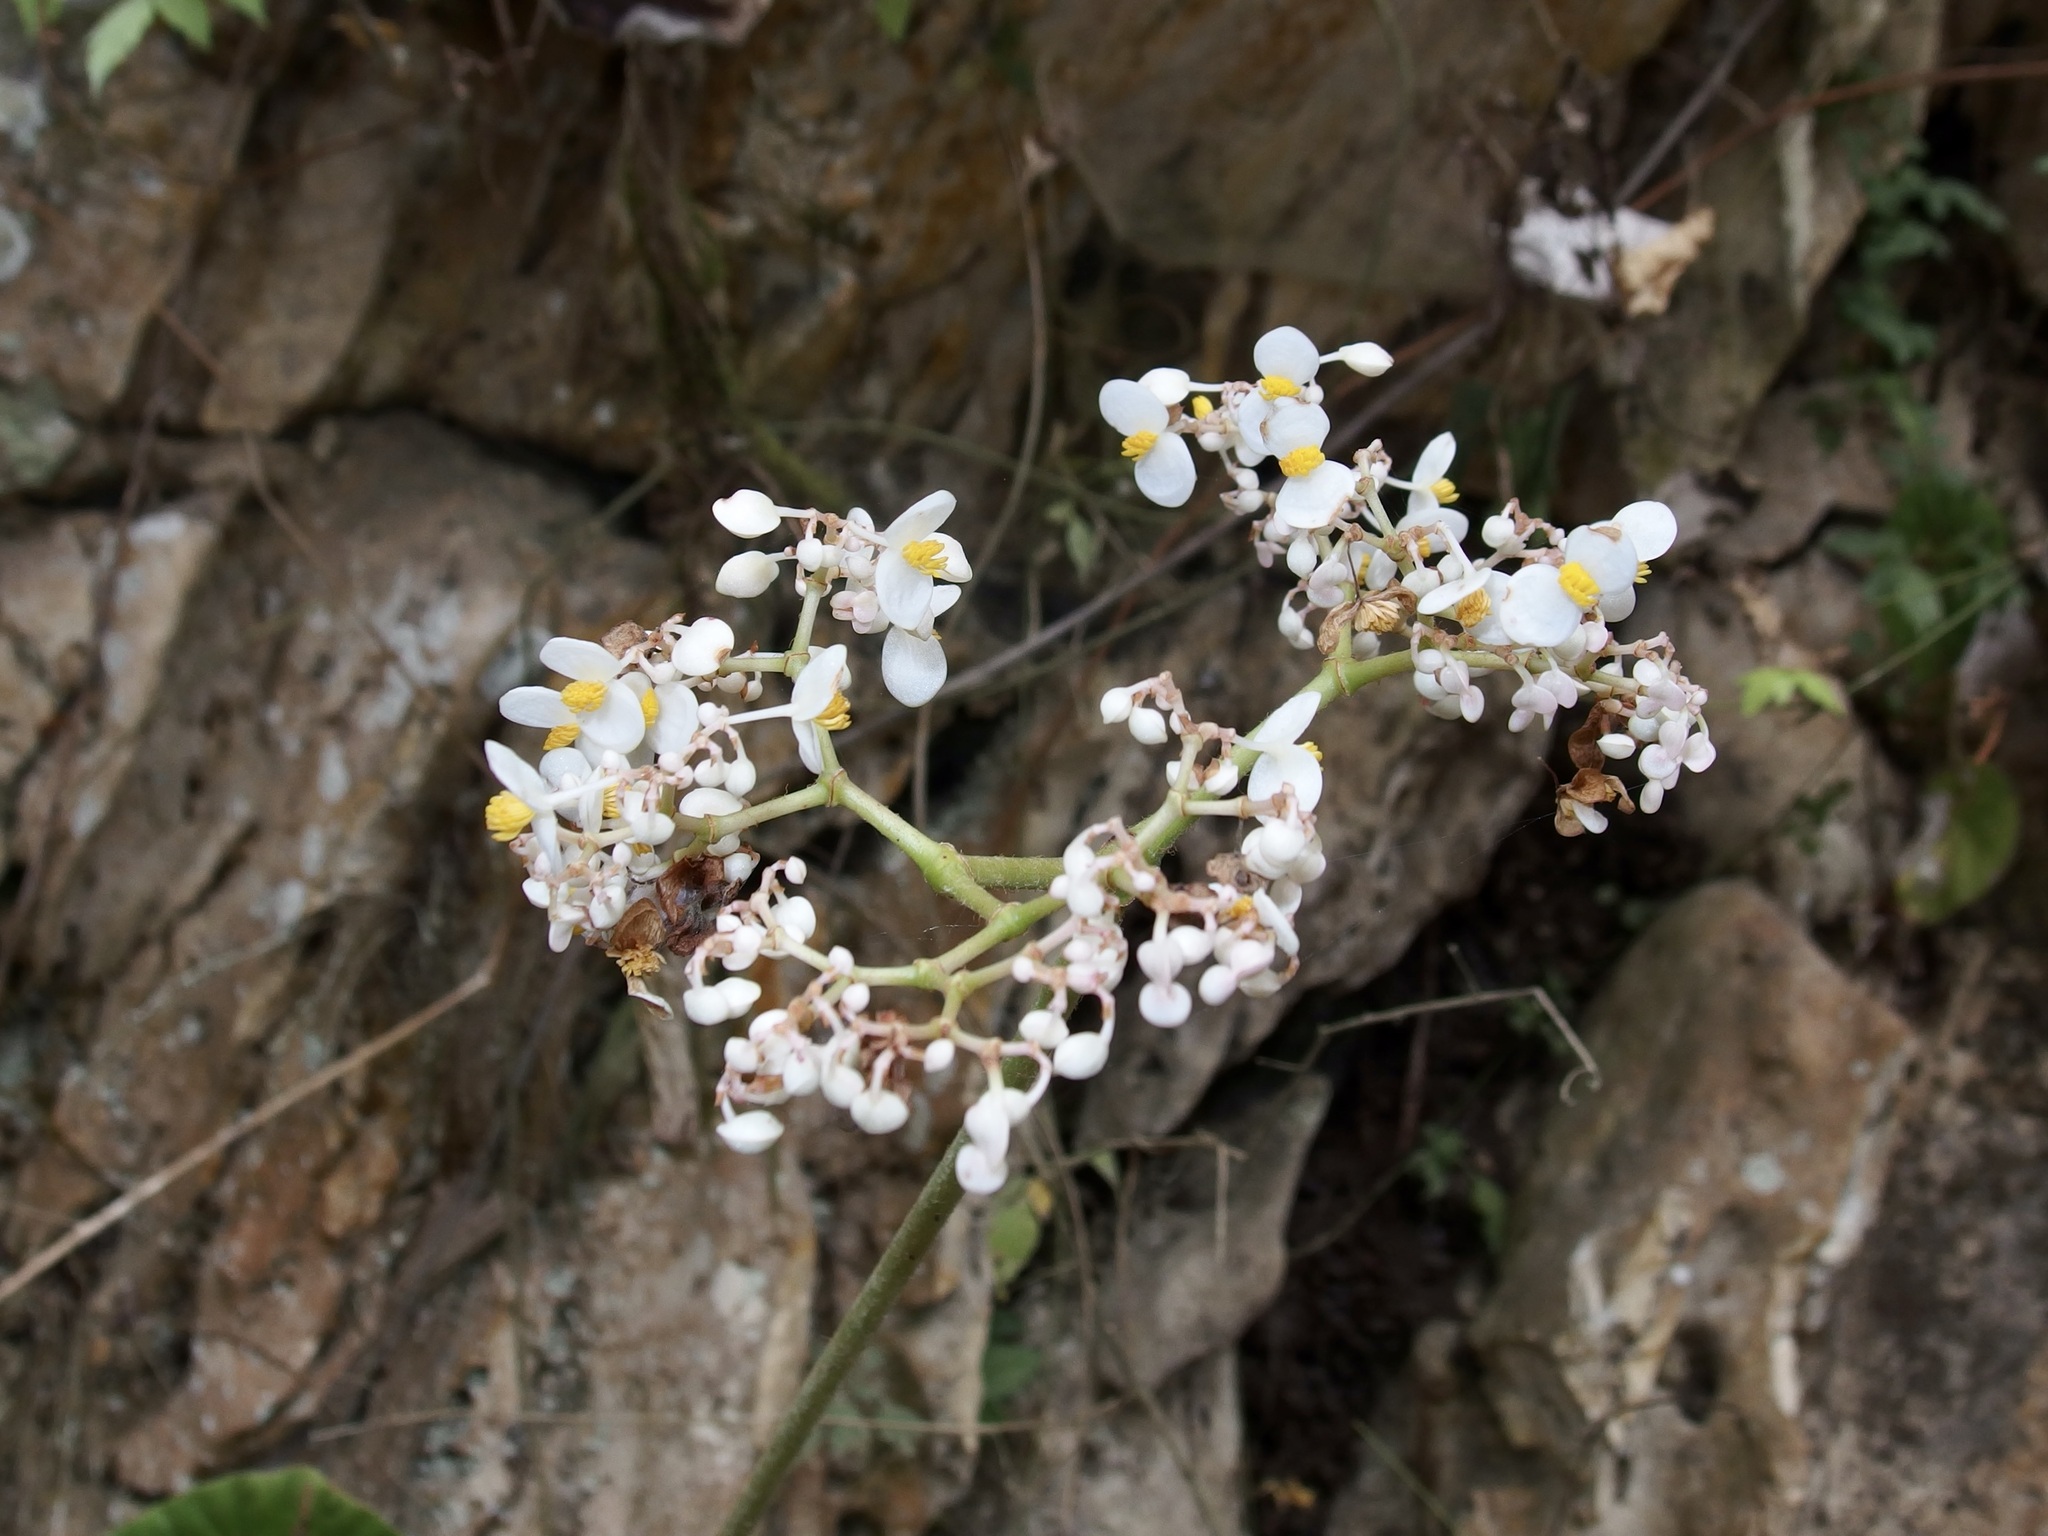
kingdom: Plantae
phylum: Tracheophyta
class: Magnoliopsida
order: Cucurbitales
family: Begoniaceae
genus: Begonia
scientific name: Begonia nelumbiifolia
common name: Lilypad begonia
